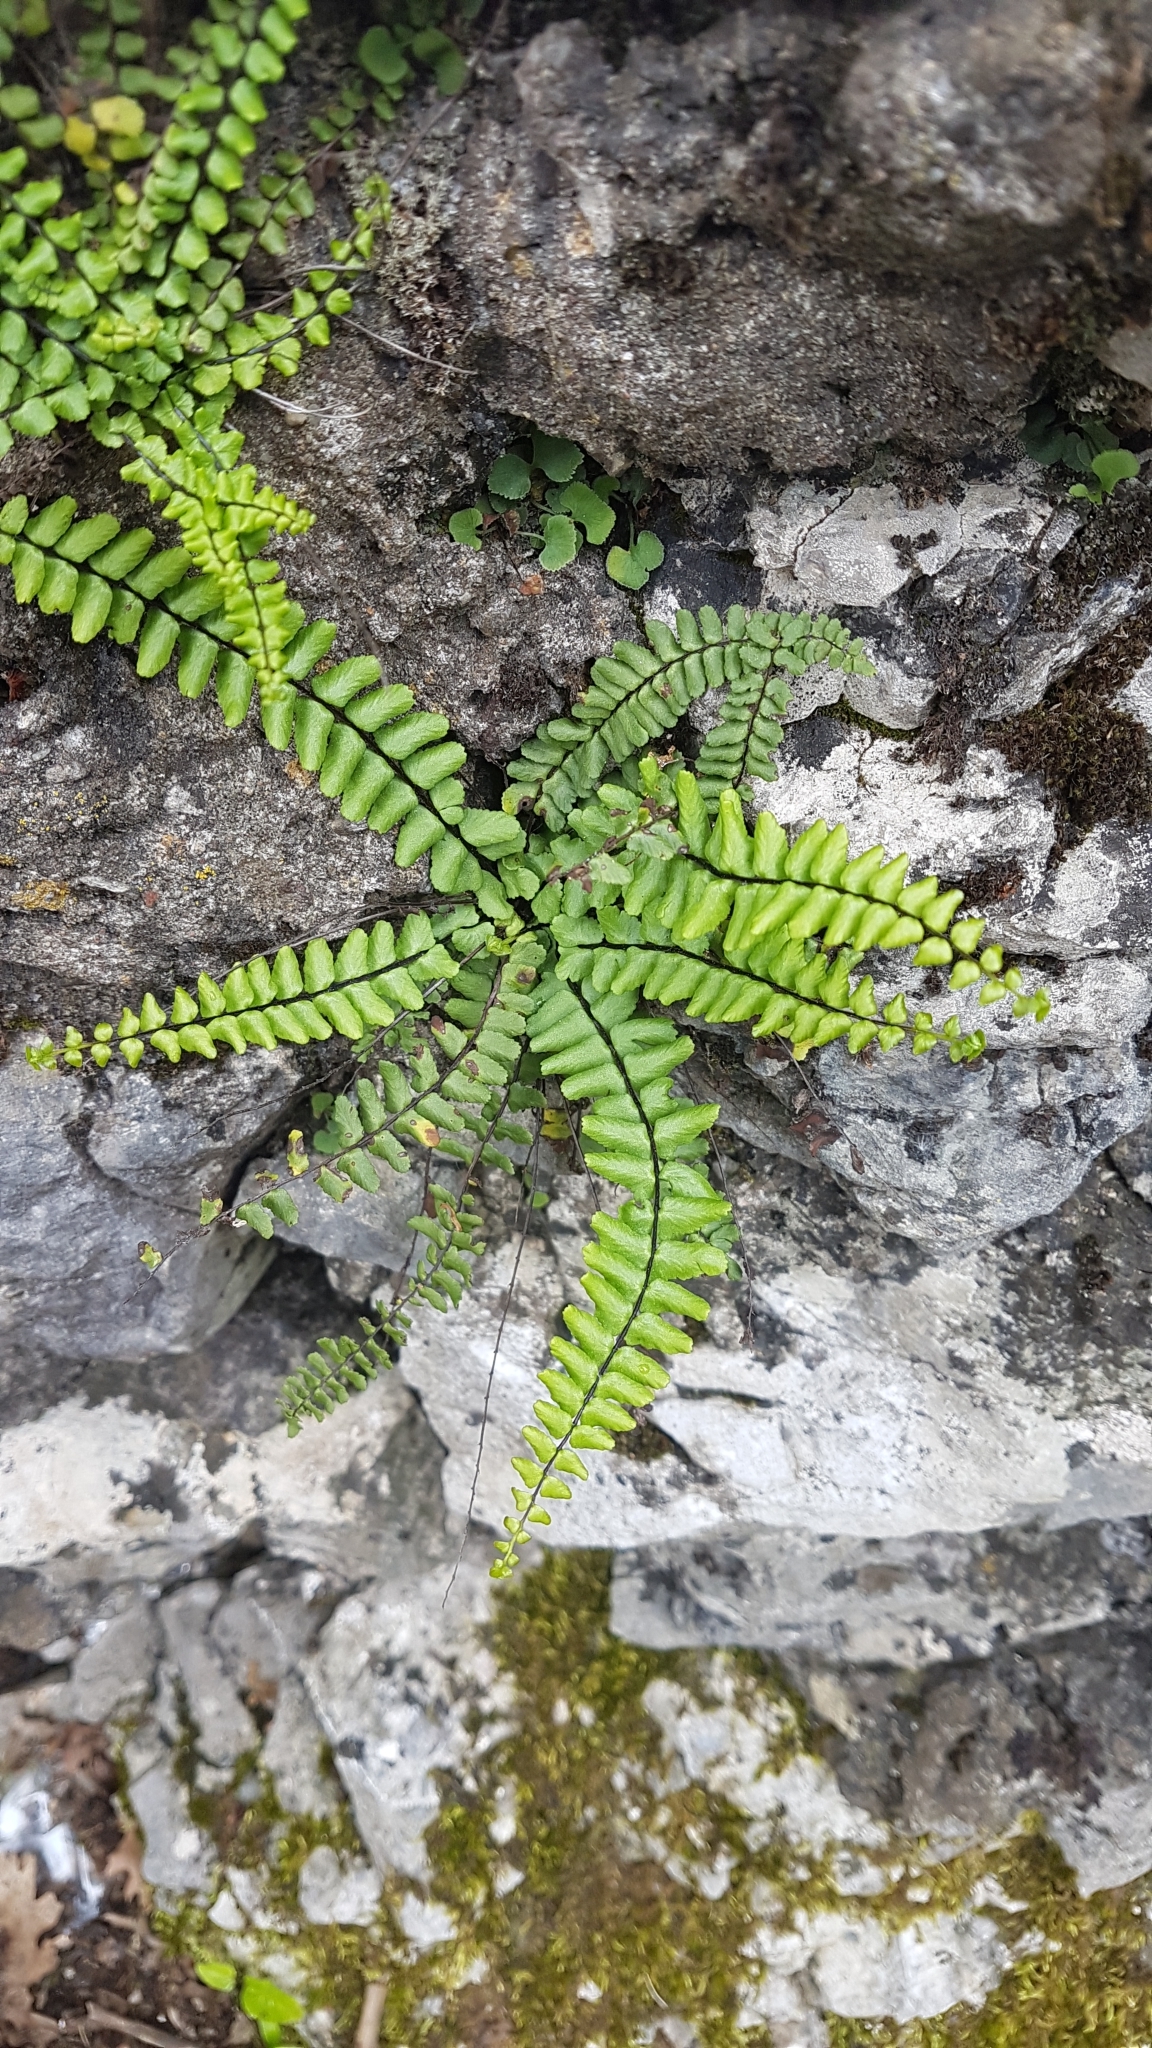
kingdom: Plantae
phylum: Tracheophyta
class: Polypodiopsida
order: Polypodiales
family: Aspleniaceae
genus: Asplenium
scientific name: Asplenium trichomanes
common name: Maidenhair spleenwort
